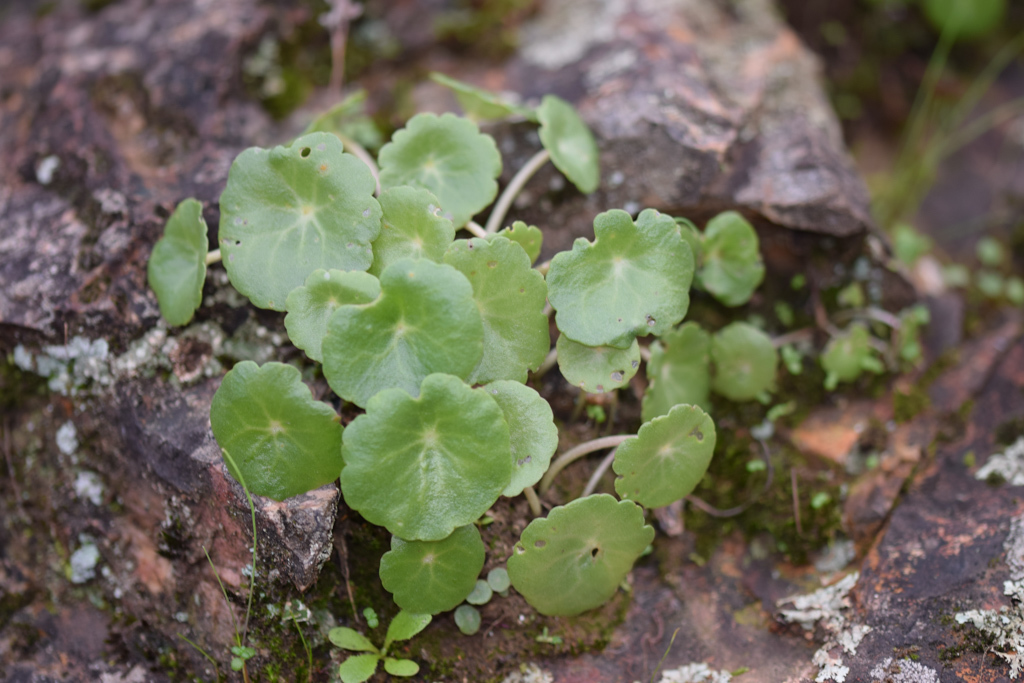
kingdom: Plantae
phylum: Tracheophyta
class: Magnoliopsida
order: Saxifragales
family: Crassulaceae
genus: Umbilicus
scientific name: Umbilicus rupestris
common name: Navelwort
